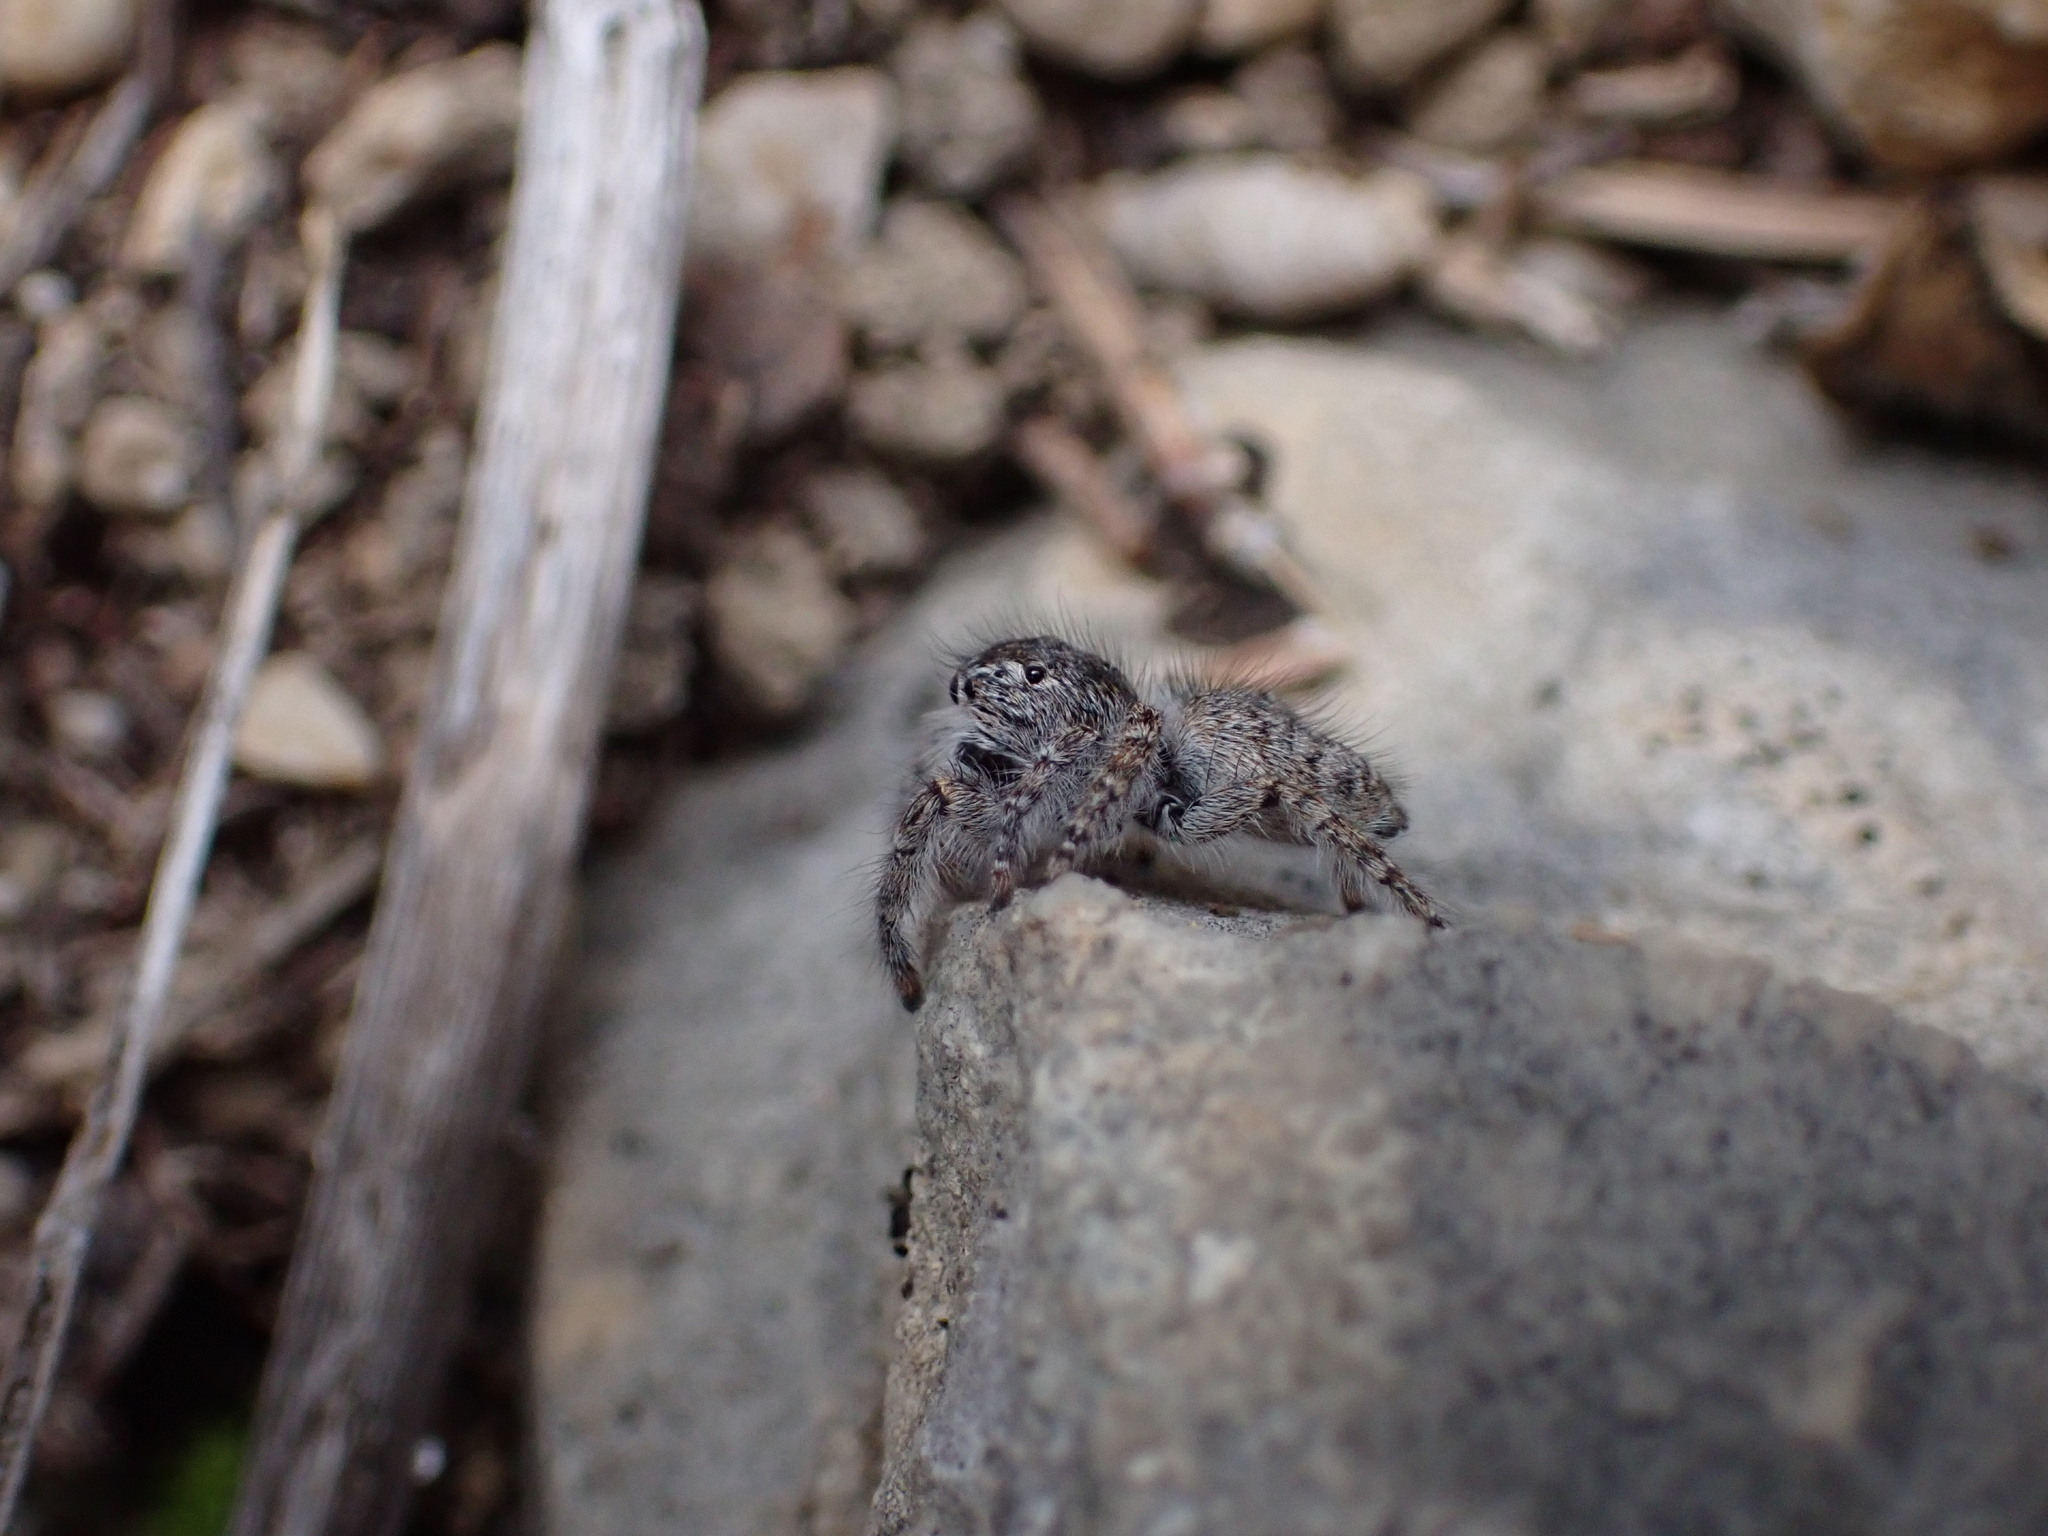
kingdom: Animalia
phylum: Arthropoda
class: Arachnida
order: Araneae
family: Salticidae
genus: Philaeus
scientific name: Philaeus chrysops
